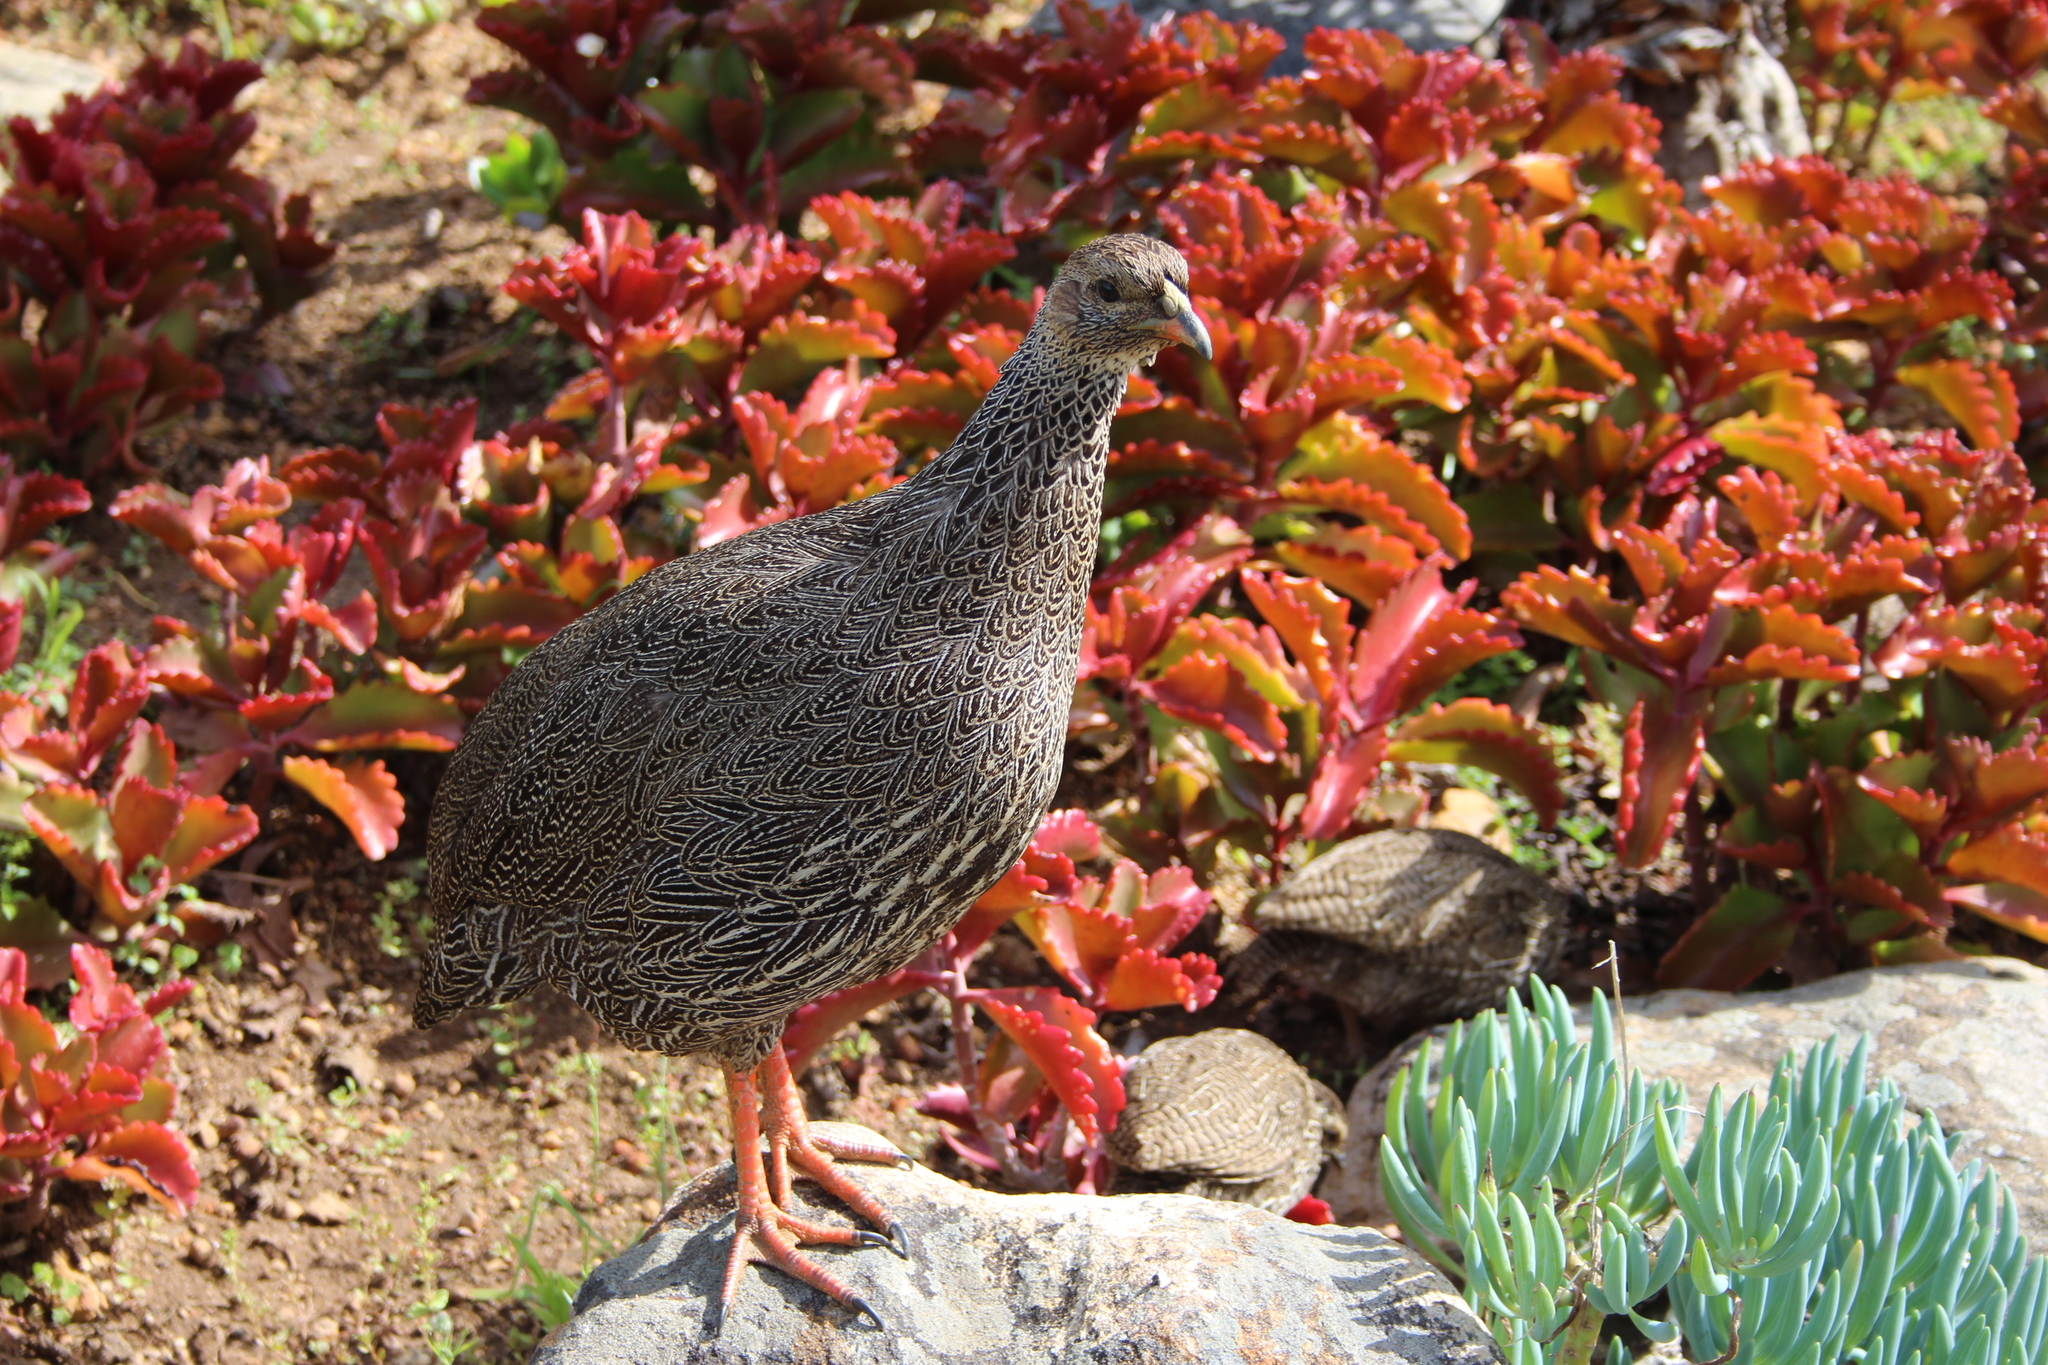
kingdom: Animalia
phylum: Chordata
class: Aves
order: Galliformes
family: Phasianidae
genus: Pternistis
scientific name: Pternistis capensis
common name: Cape spurfowl
